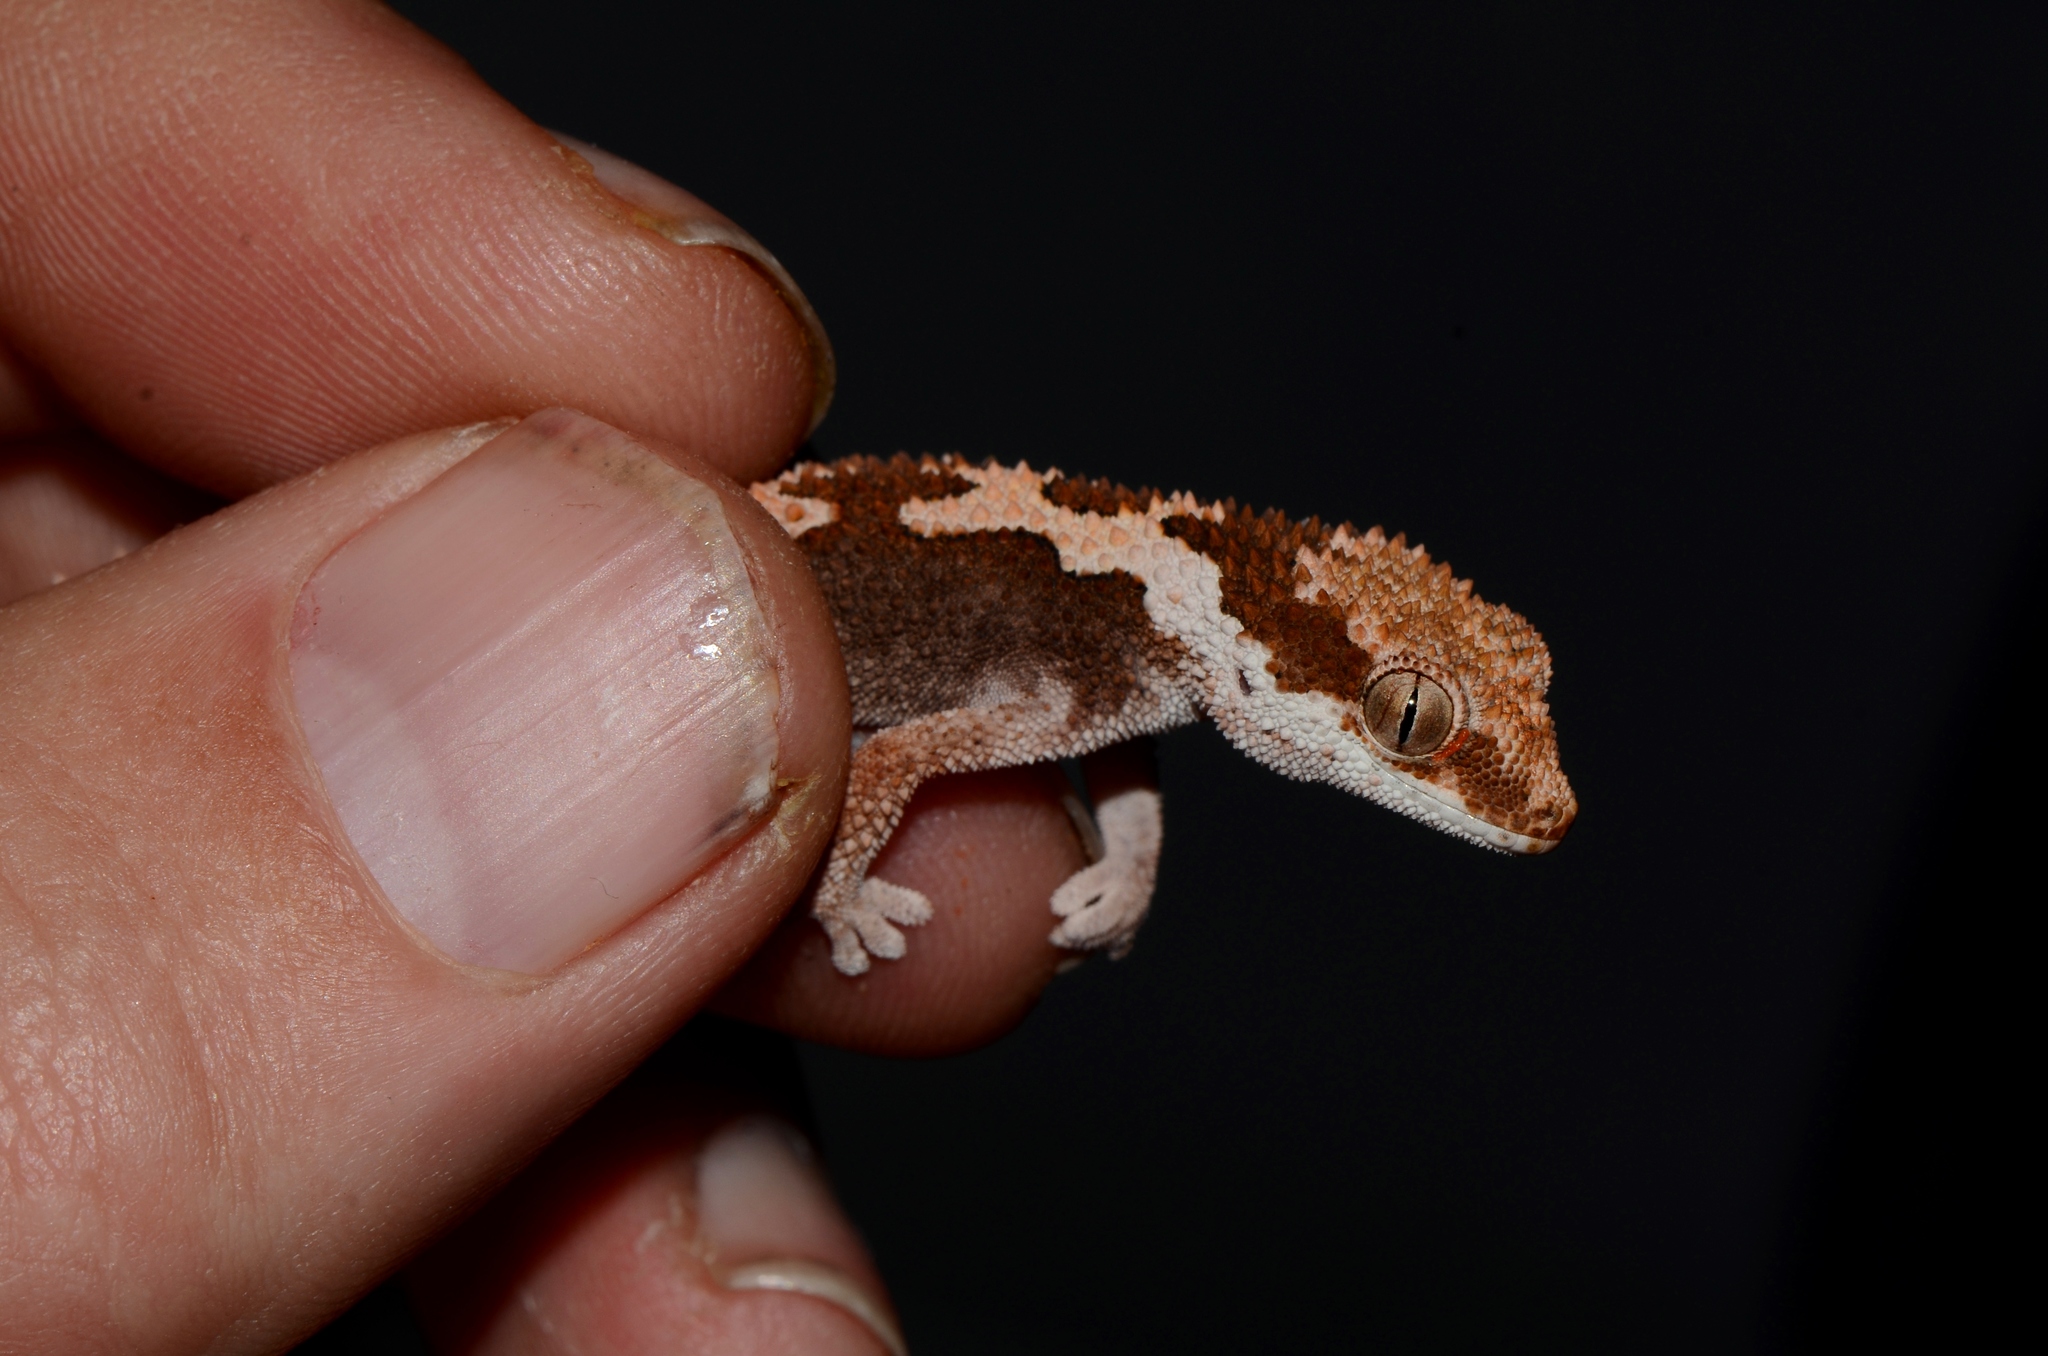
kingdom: Animalia
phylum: Chordata
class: Squamata
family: Gekkonidae
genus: Pachydactylus
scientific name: Pachydactylus rugosus
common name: Common rough gecko
